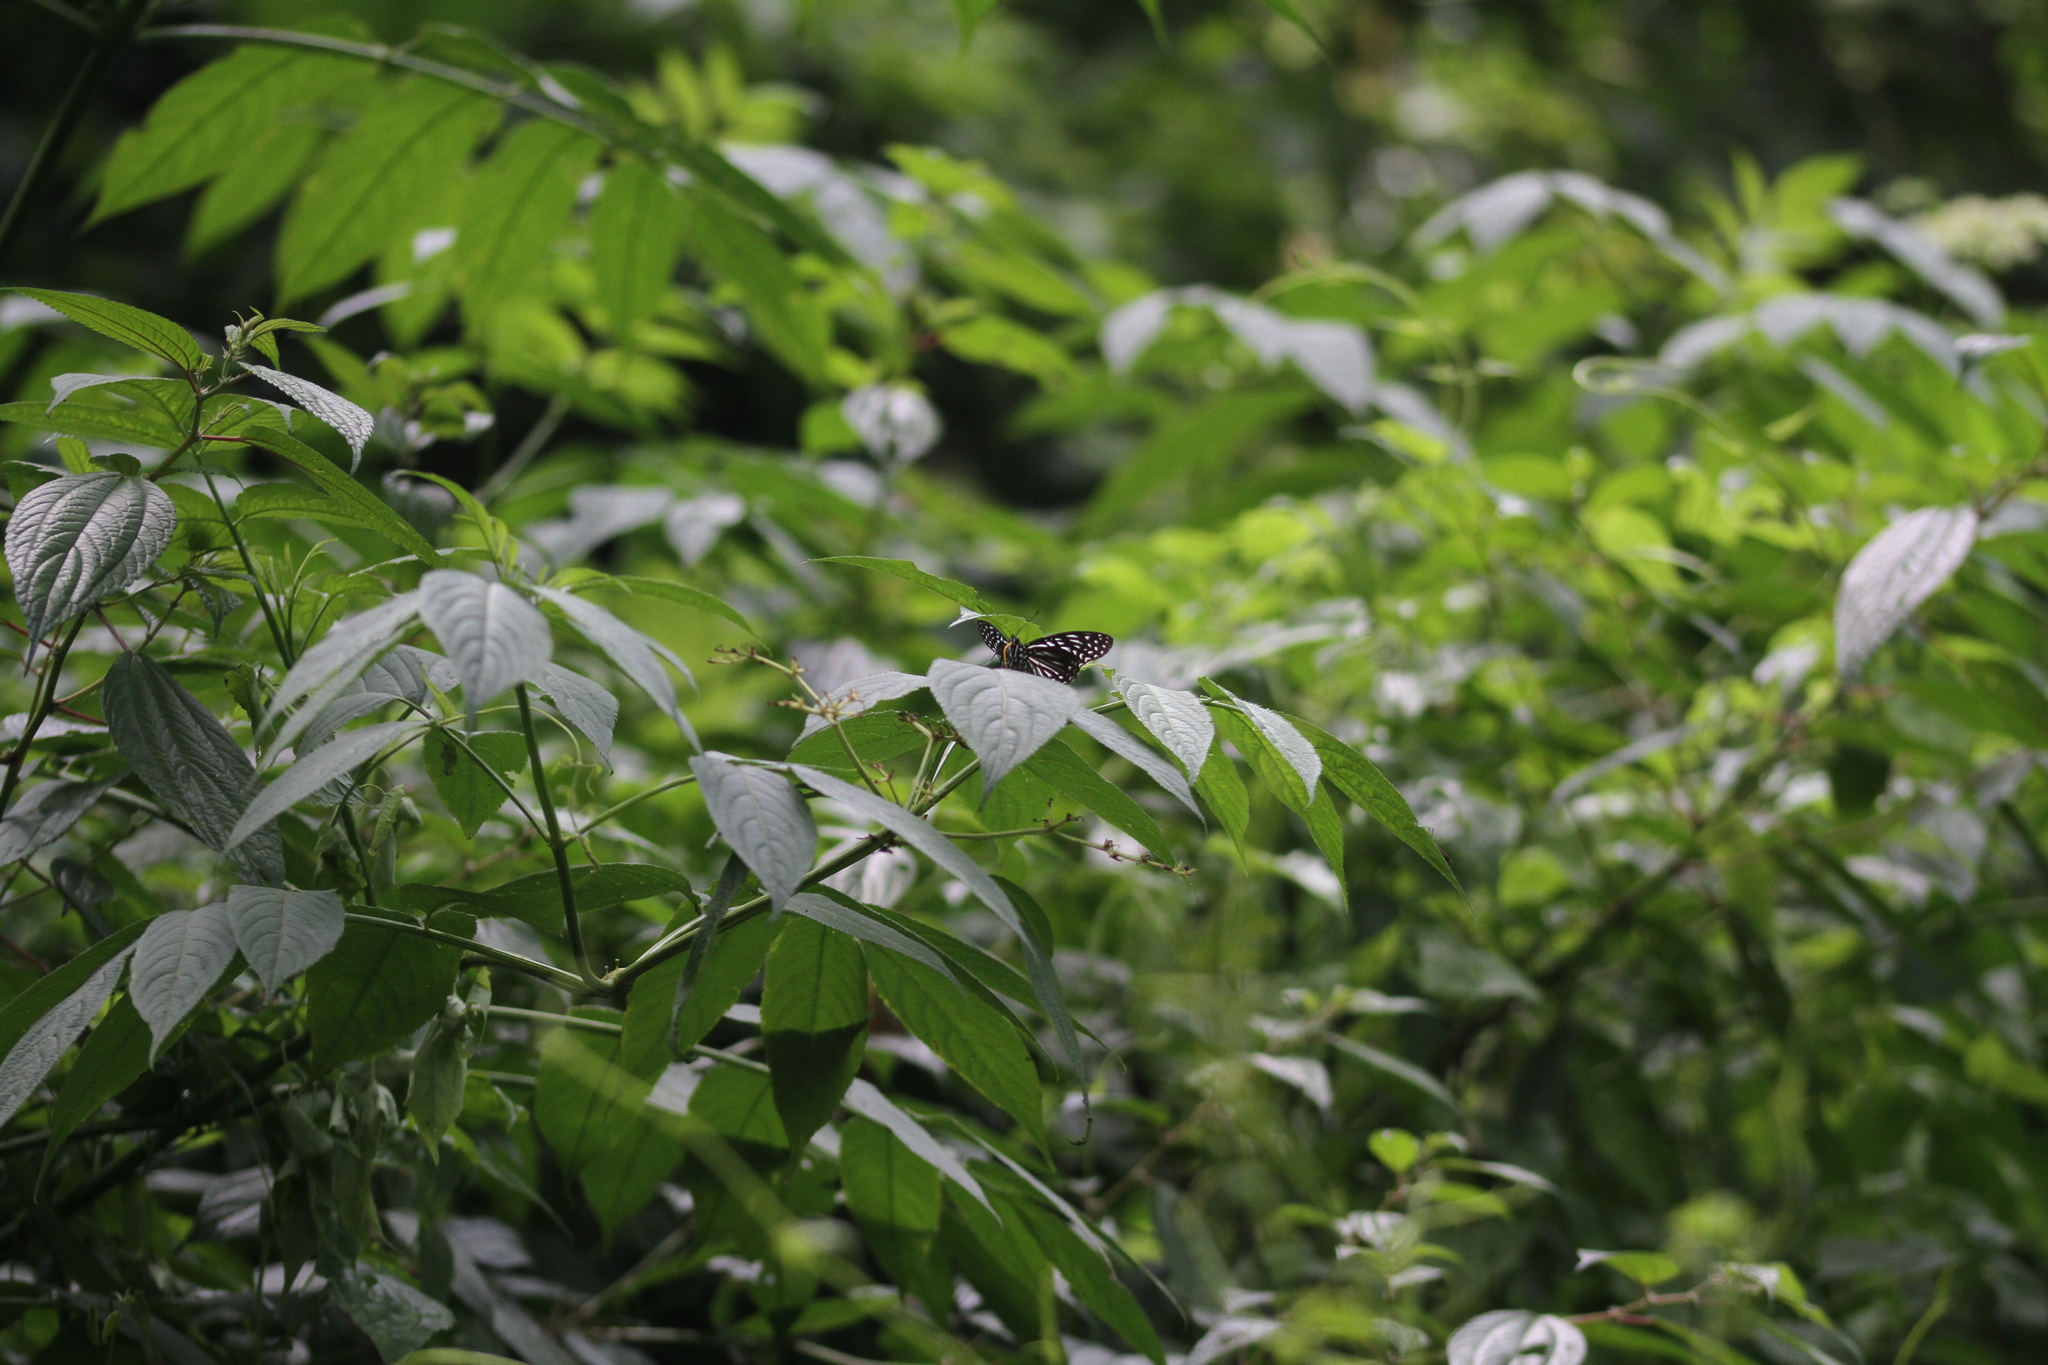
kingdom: Animalia
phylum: Arthropoda
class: Insecta
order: Lepidoptera
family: Nymphalidae
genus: Hestinalis
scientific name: Hestinalis mimetica
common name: Malayan circe
